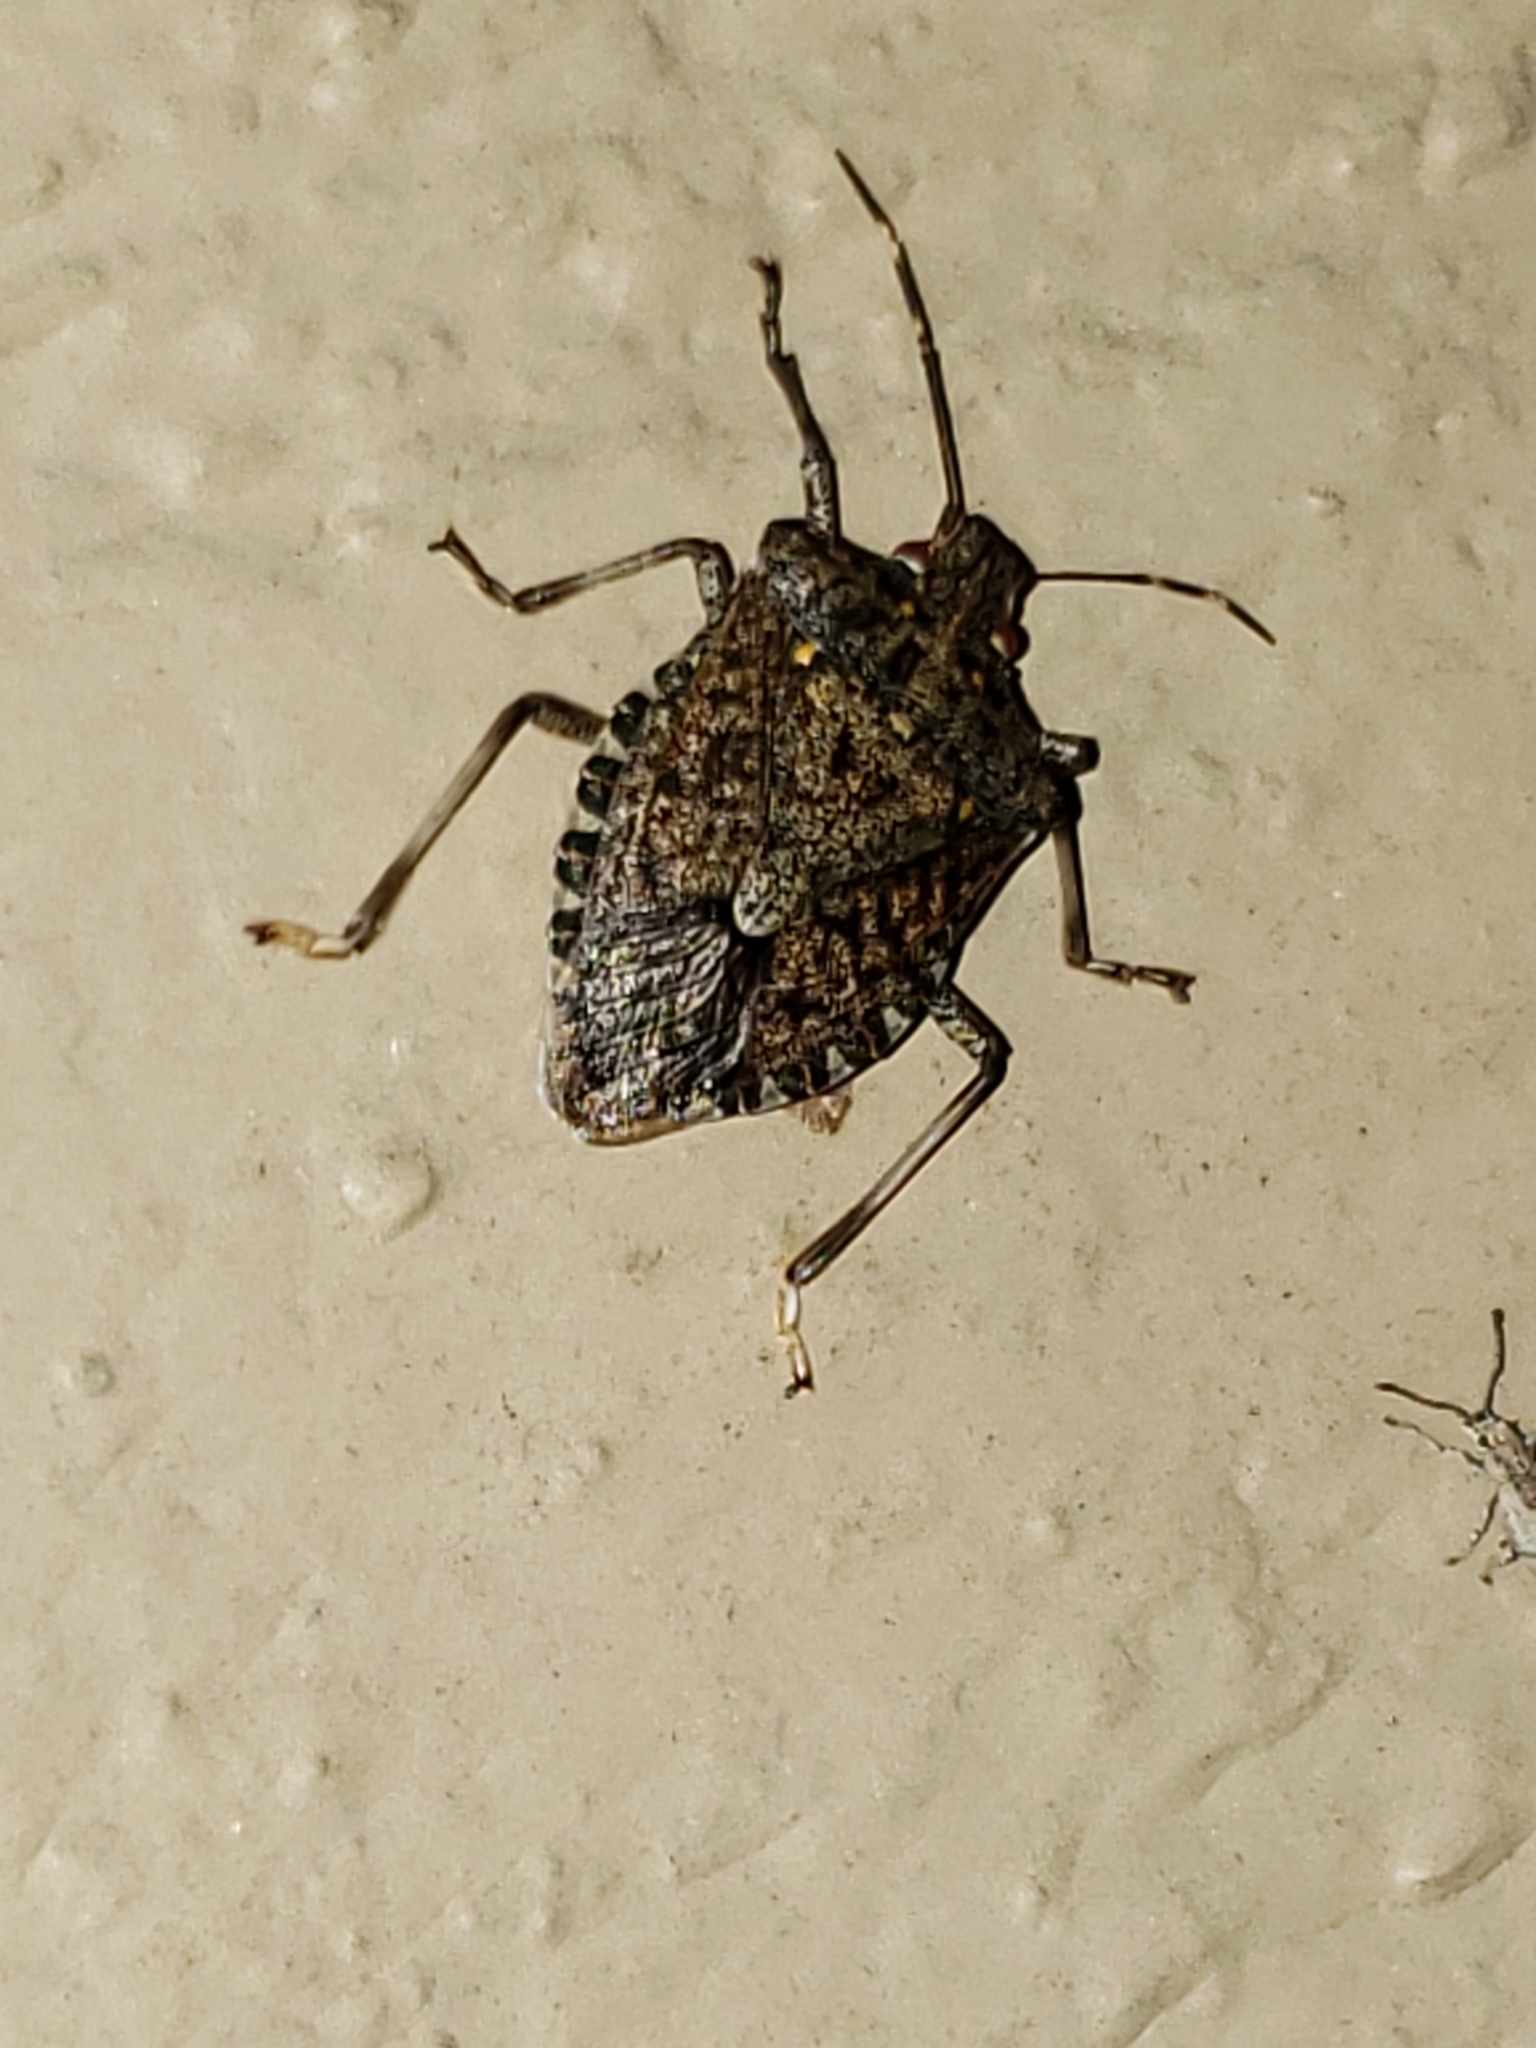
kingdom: Animalia
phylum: Arthropoda
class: Insecta
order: Hemiptera
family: Pentatomidae
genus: Halyomorpha
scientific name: Halyomorpha halys
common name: Brown marmorated stink bug
